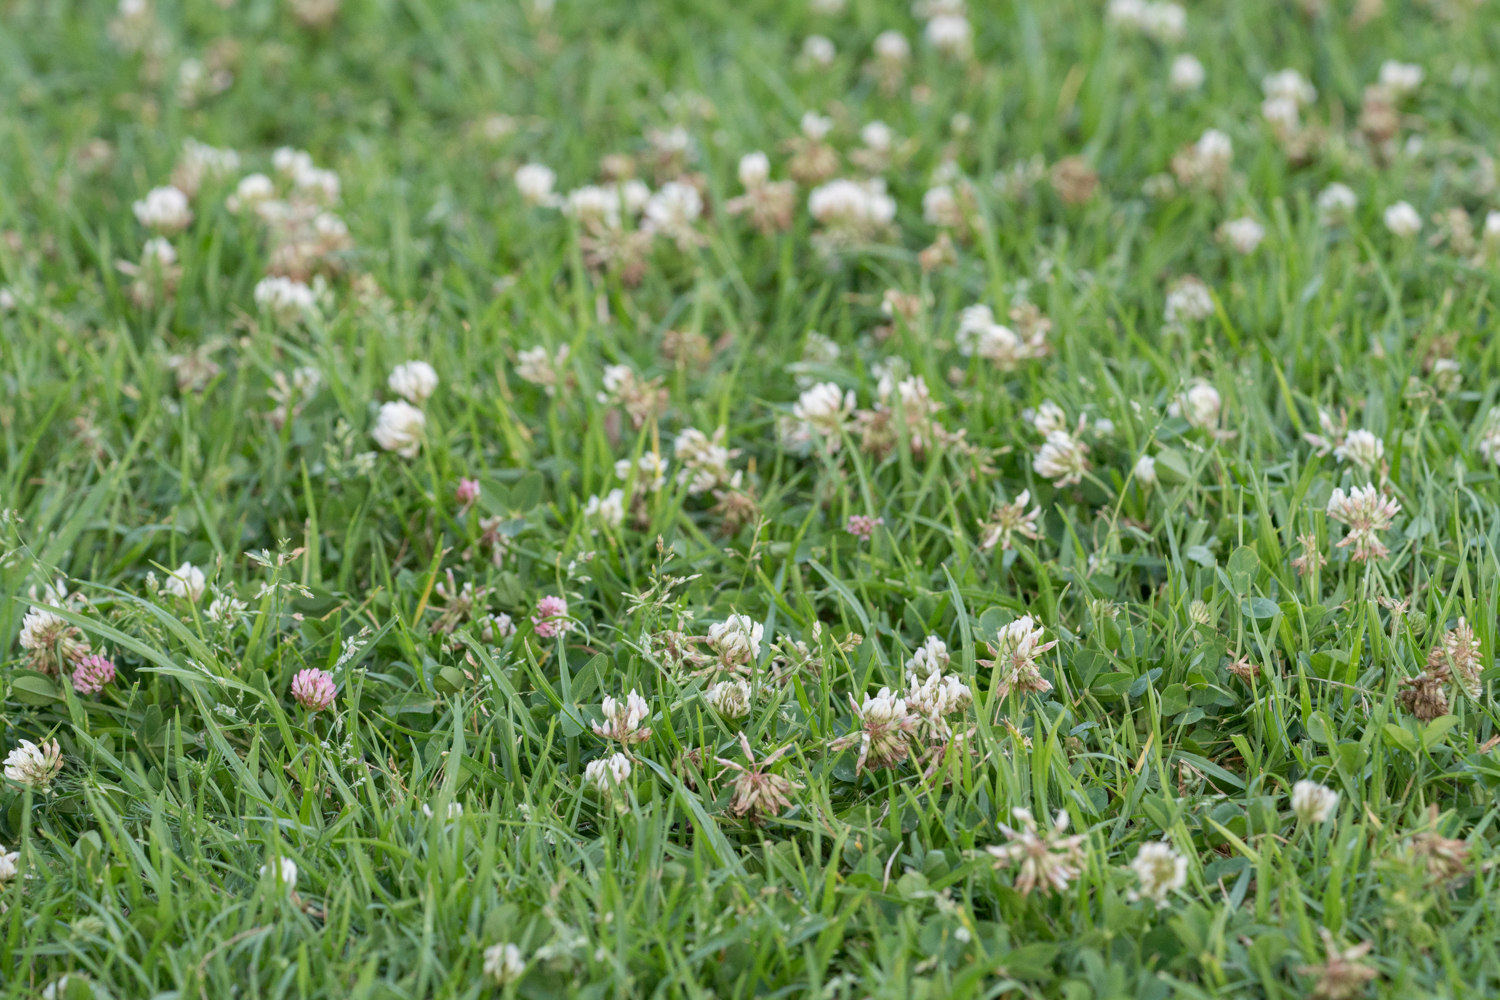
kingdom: Plantae
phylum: Tracheophyta
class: Magnoliopsida
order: Fabales
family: Fabaceae
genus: Trifolium
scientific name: Trifolium repens
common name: White clover
